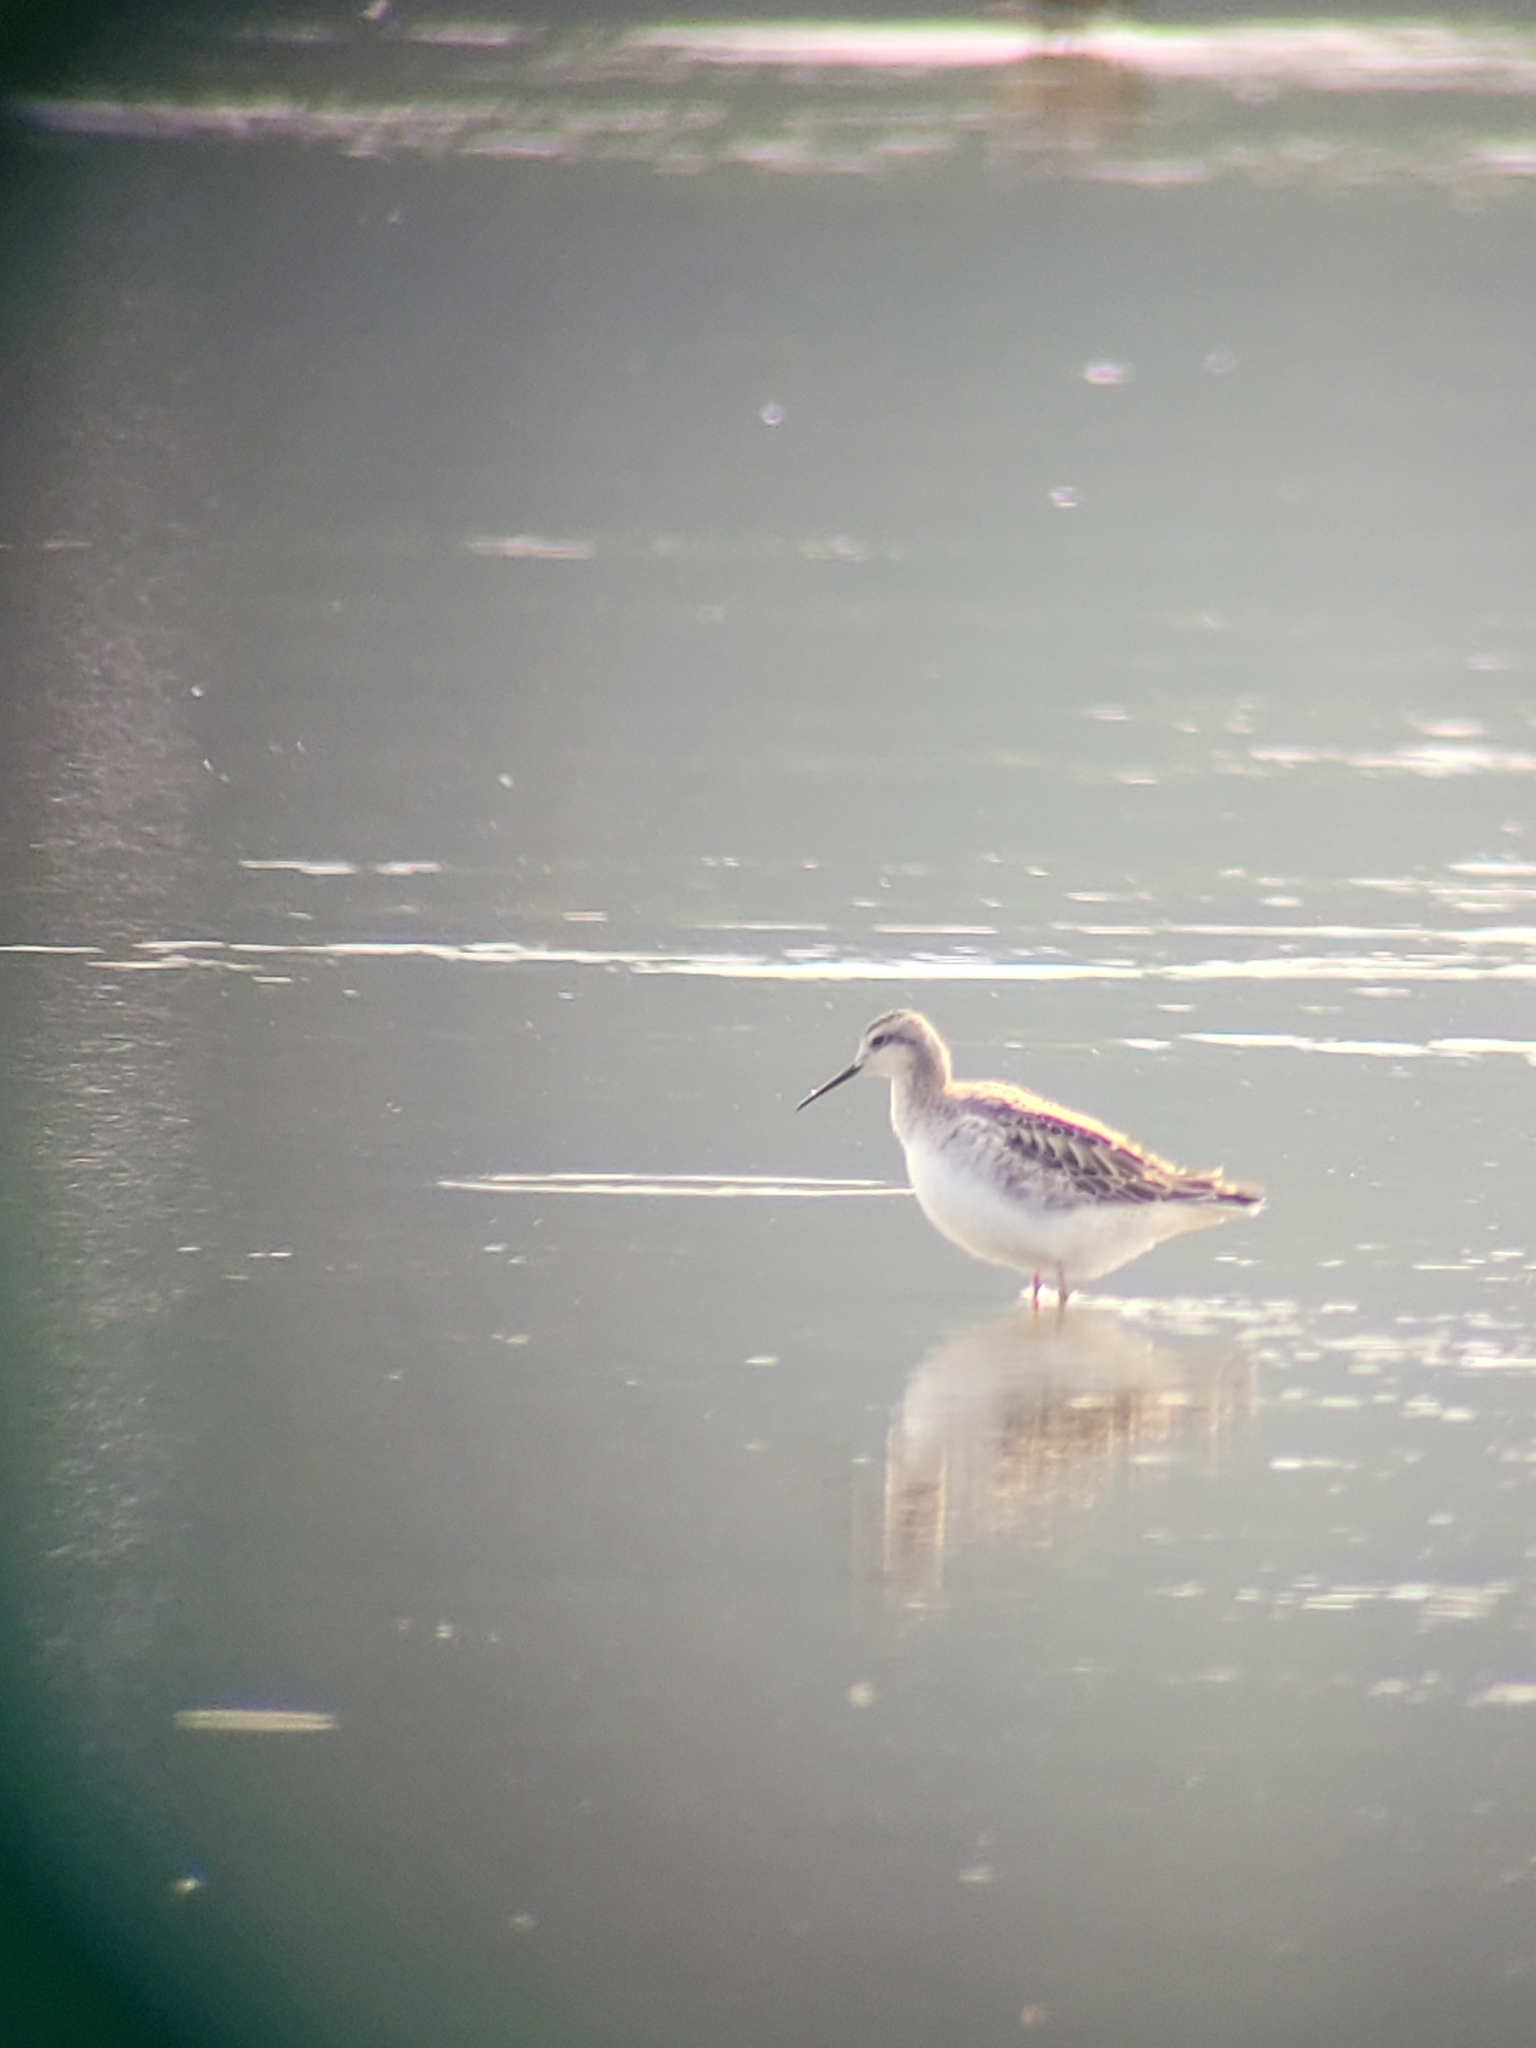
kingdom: Animalia
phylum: Chordata
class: Aves
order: Charadriiformes
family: Scolopacidae
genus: Phalaropus
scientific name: Phalaropus tricolor
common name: Wilson's phalarope
